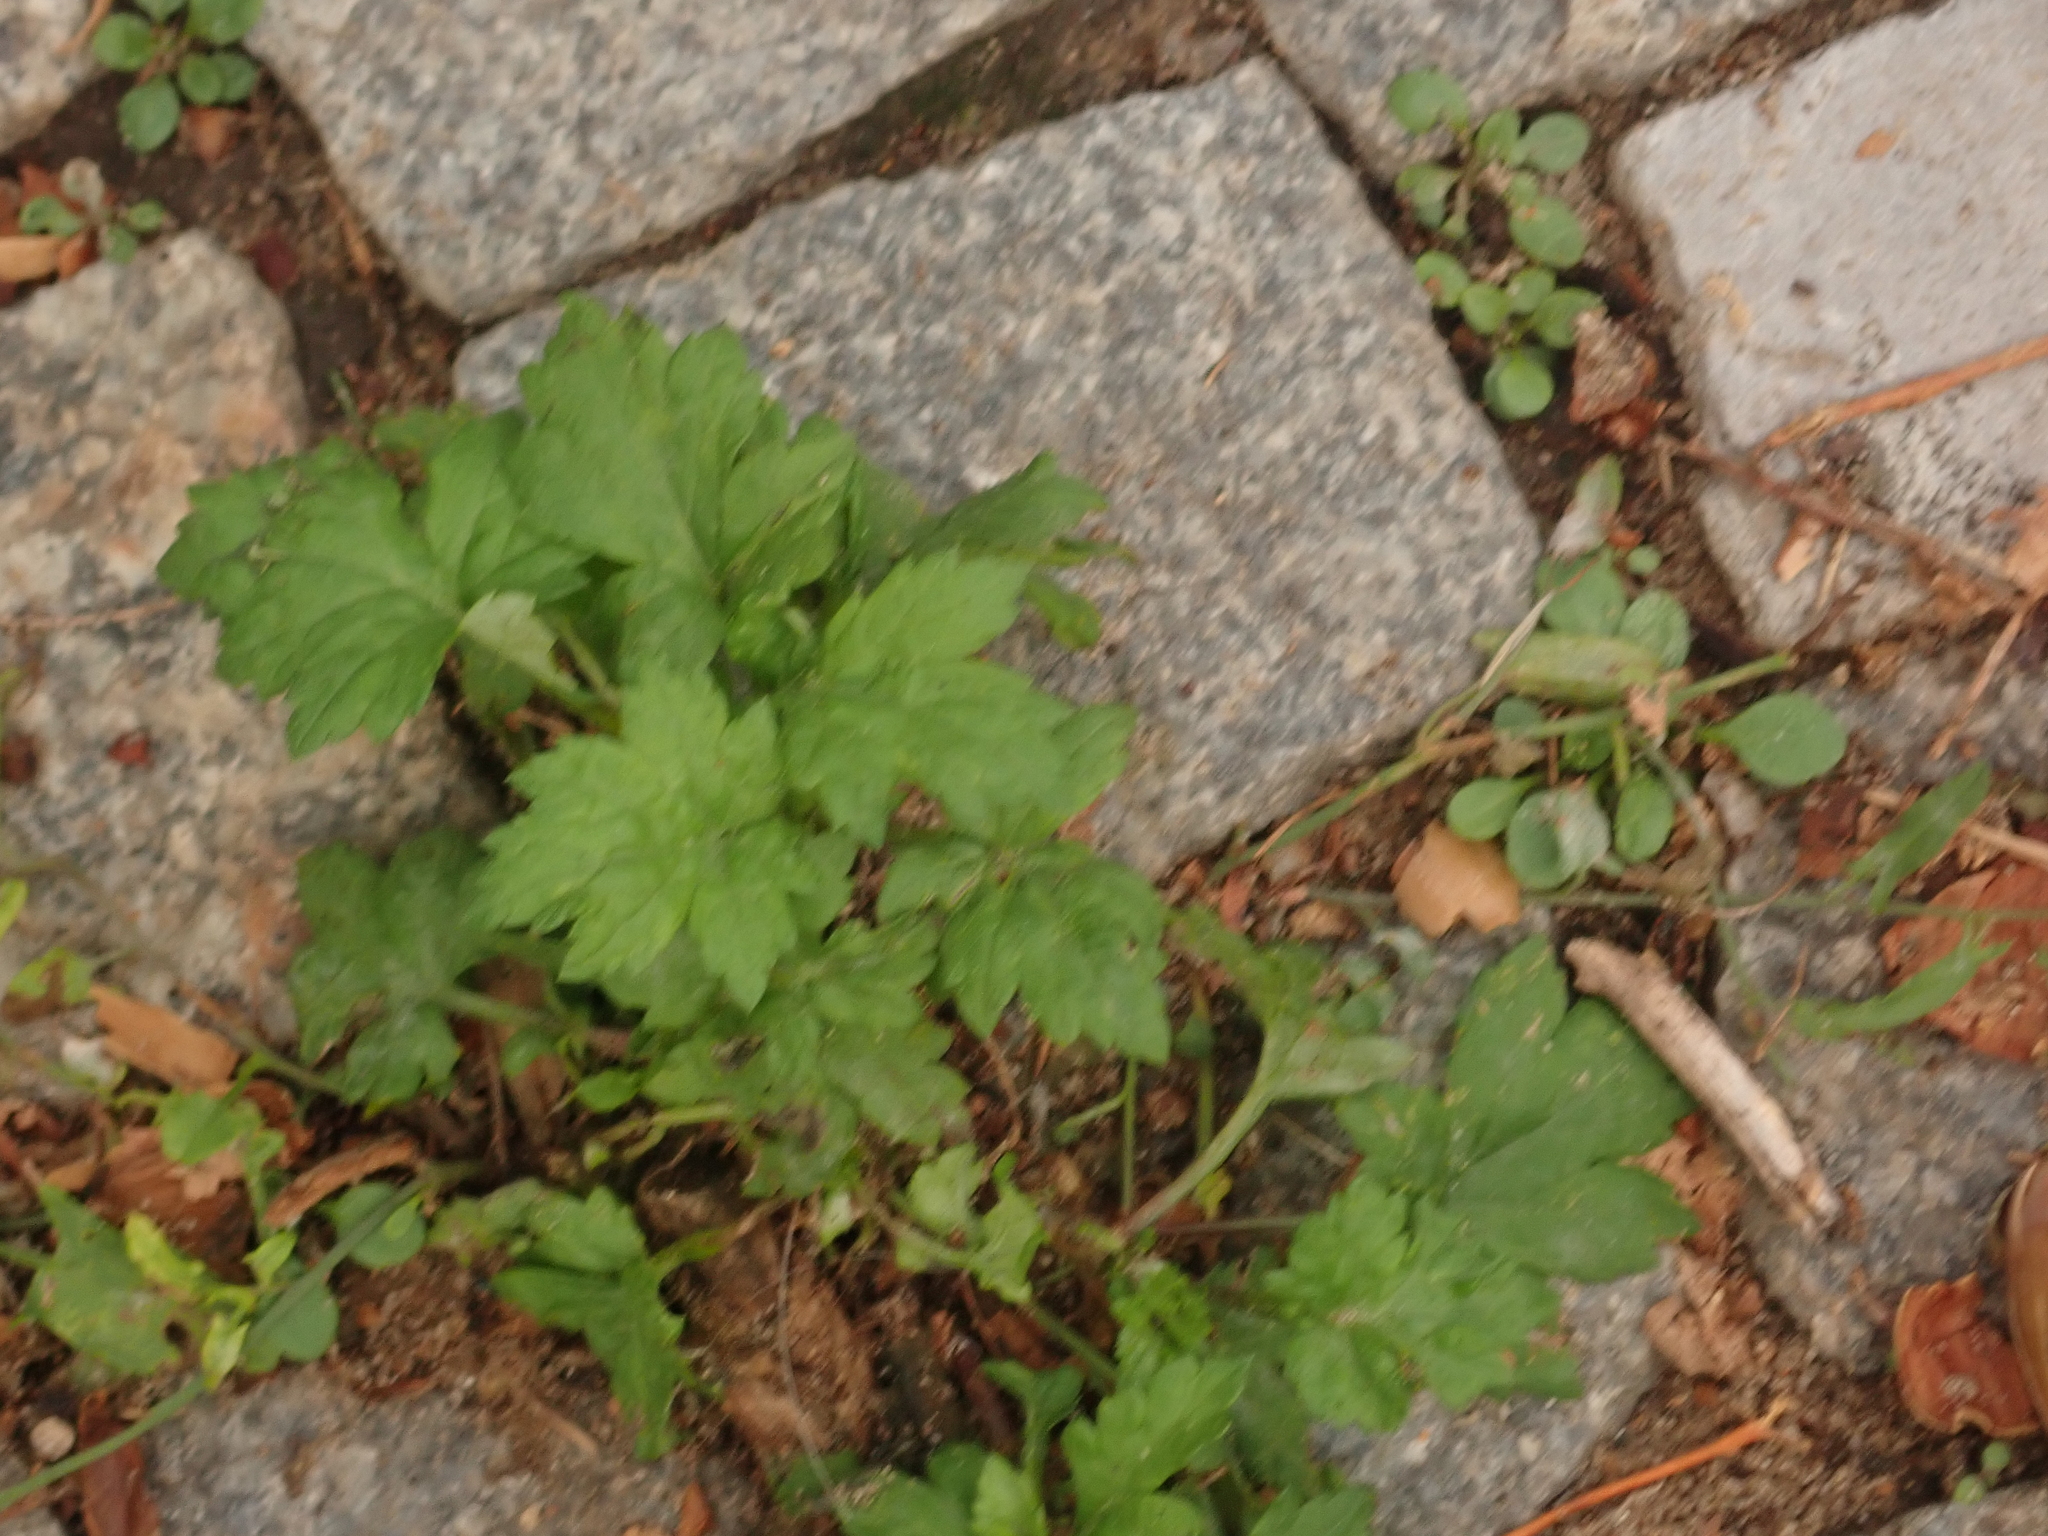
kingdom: Plantae
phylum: Tracheophyta
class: Magnoliopsida
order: Asterales
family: Asteraceae
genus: Artemisia
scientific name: Artemisia vulgaris
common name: Mugwort
